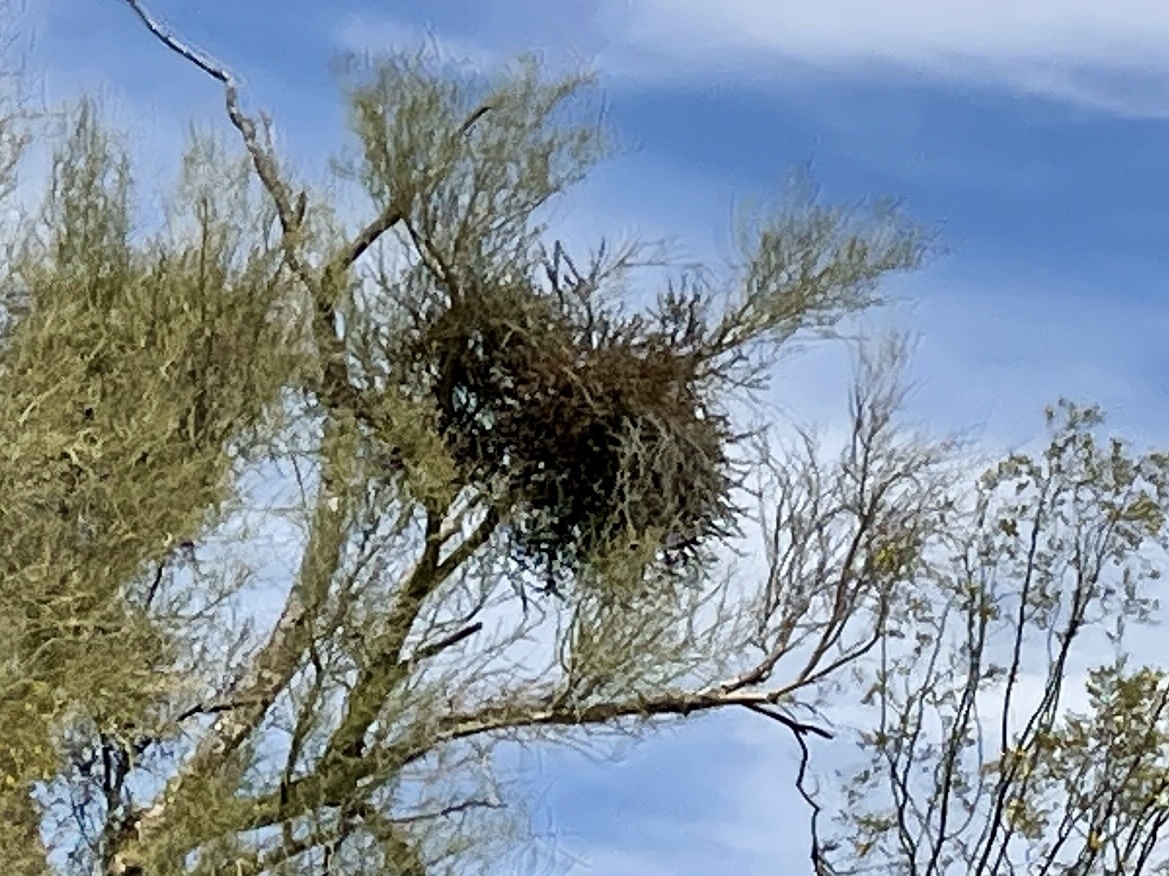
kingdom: Plantae
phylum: Tracheophyta
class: Magnoliopsida
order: Santalales
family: Viscaceae
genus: Phoradendron
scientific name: Phoradendron californicum
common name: Acacia mistletoe
